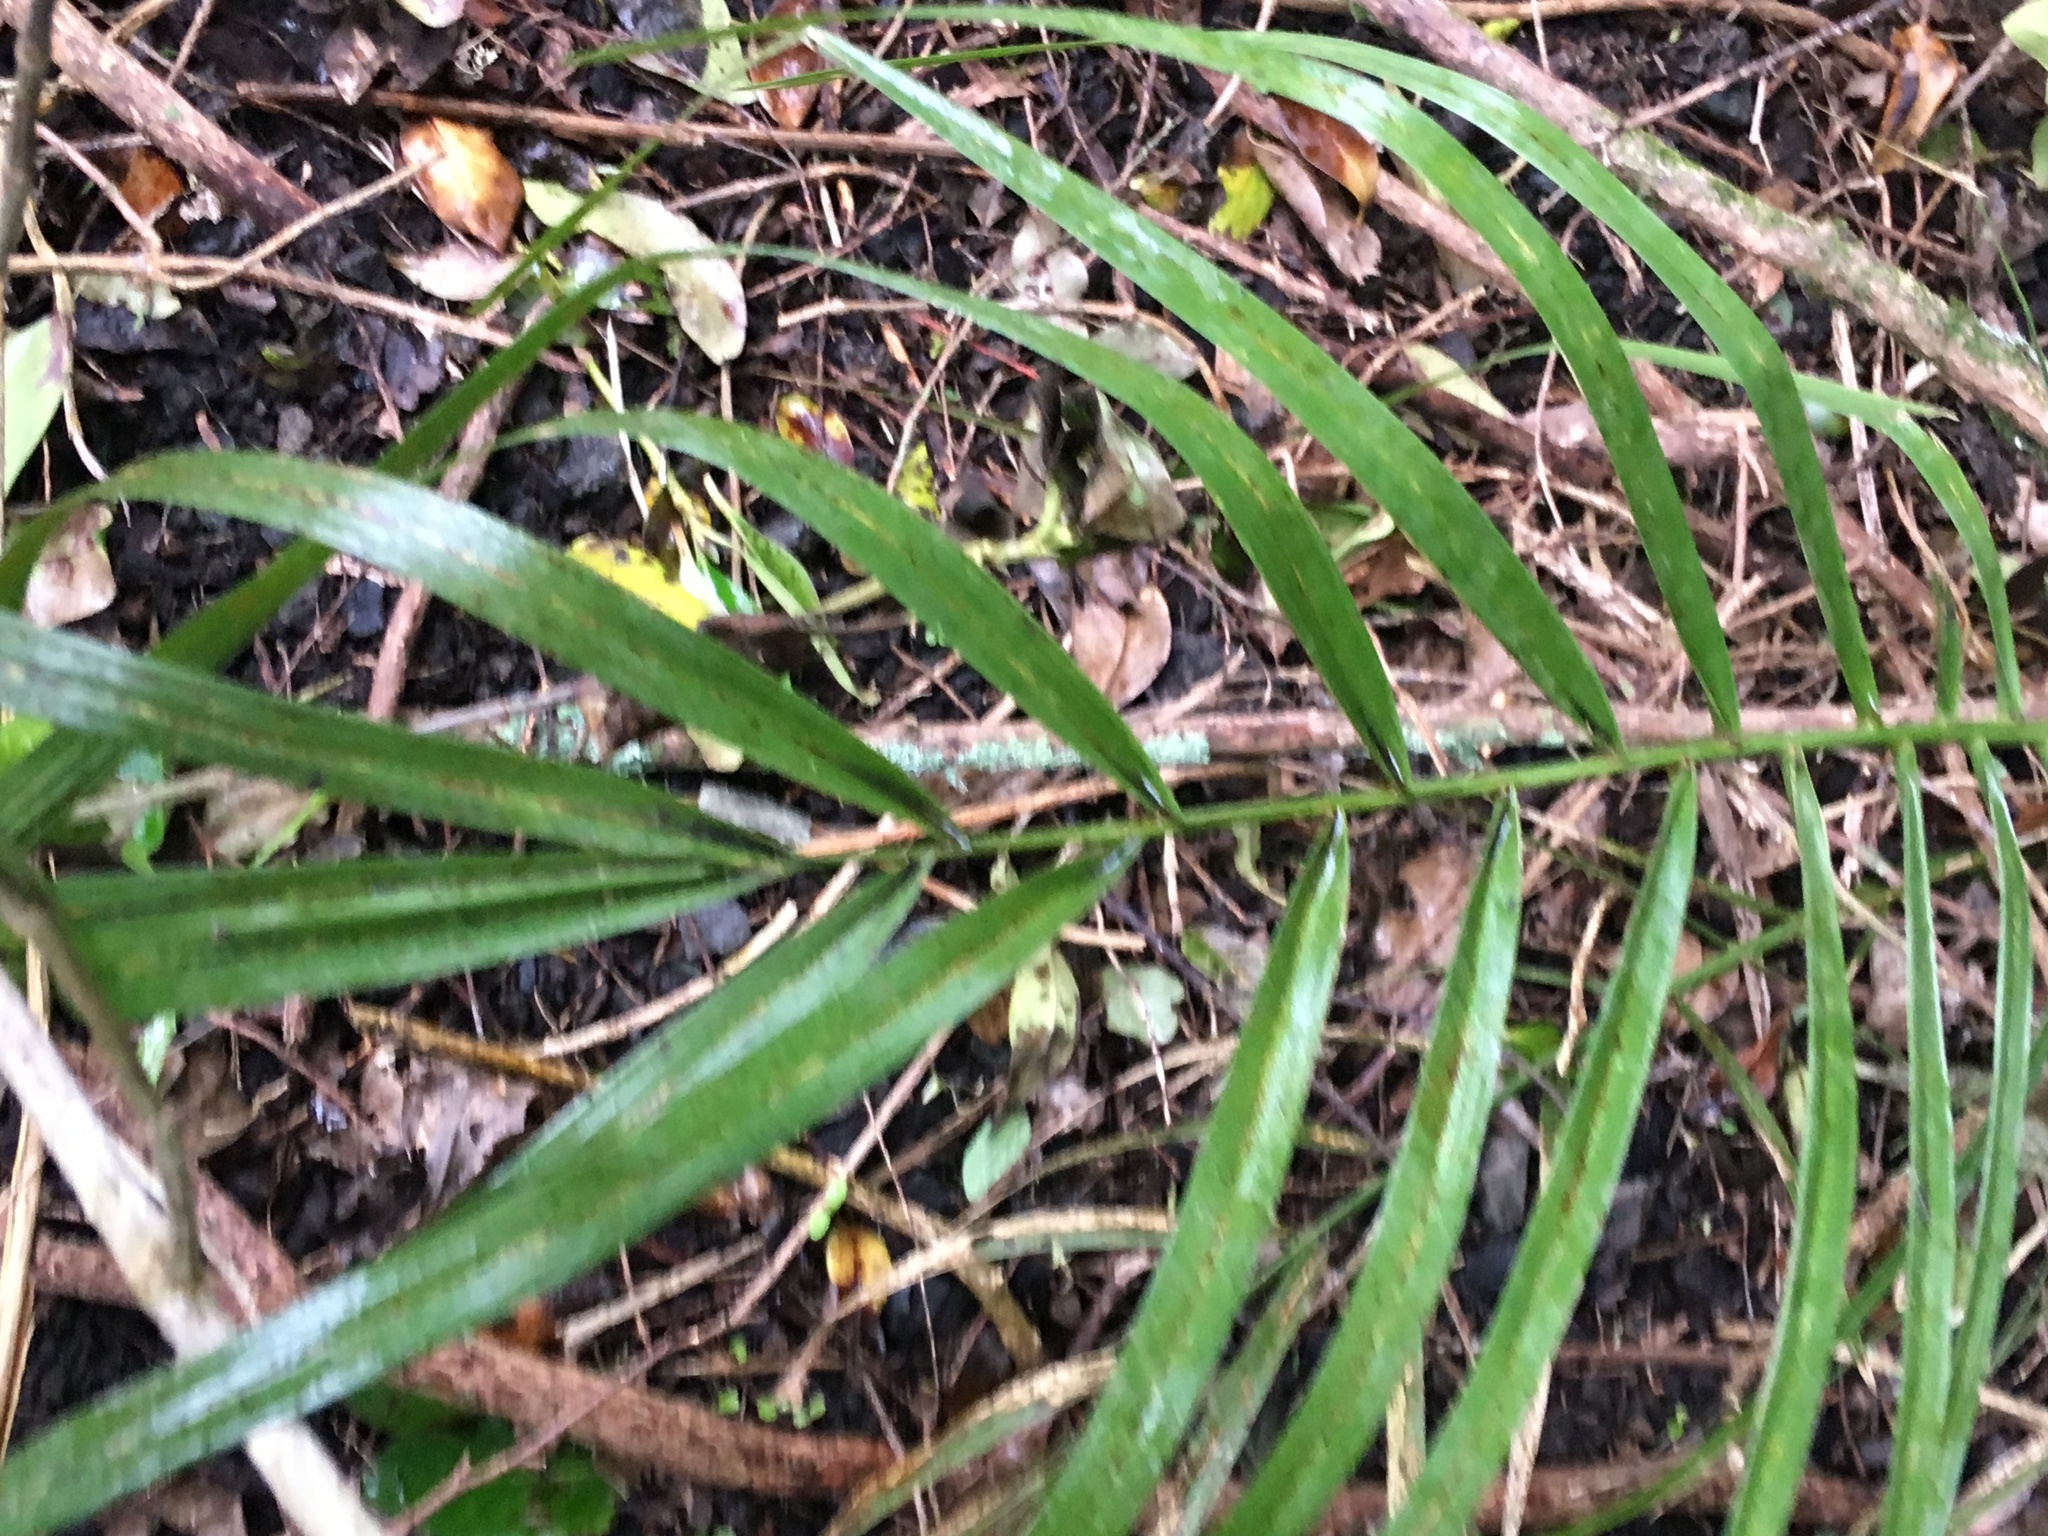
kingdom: Plantae
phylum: Tracheophyta
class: Liliopsida
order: Arecales
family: Arecaceae
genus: Phoenix
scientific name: Phoenix canariensis
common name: Canary island date palm
